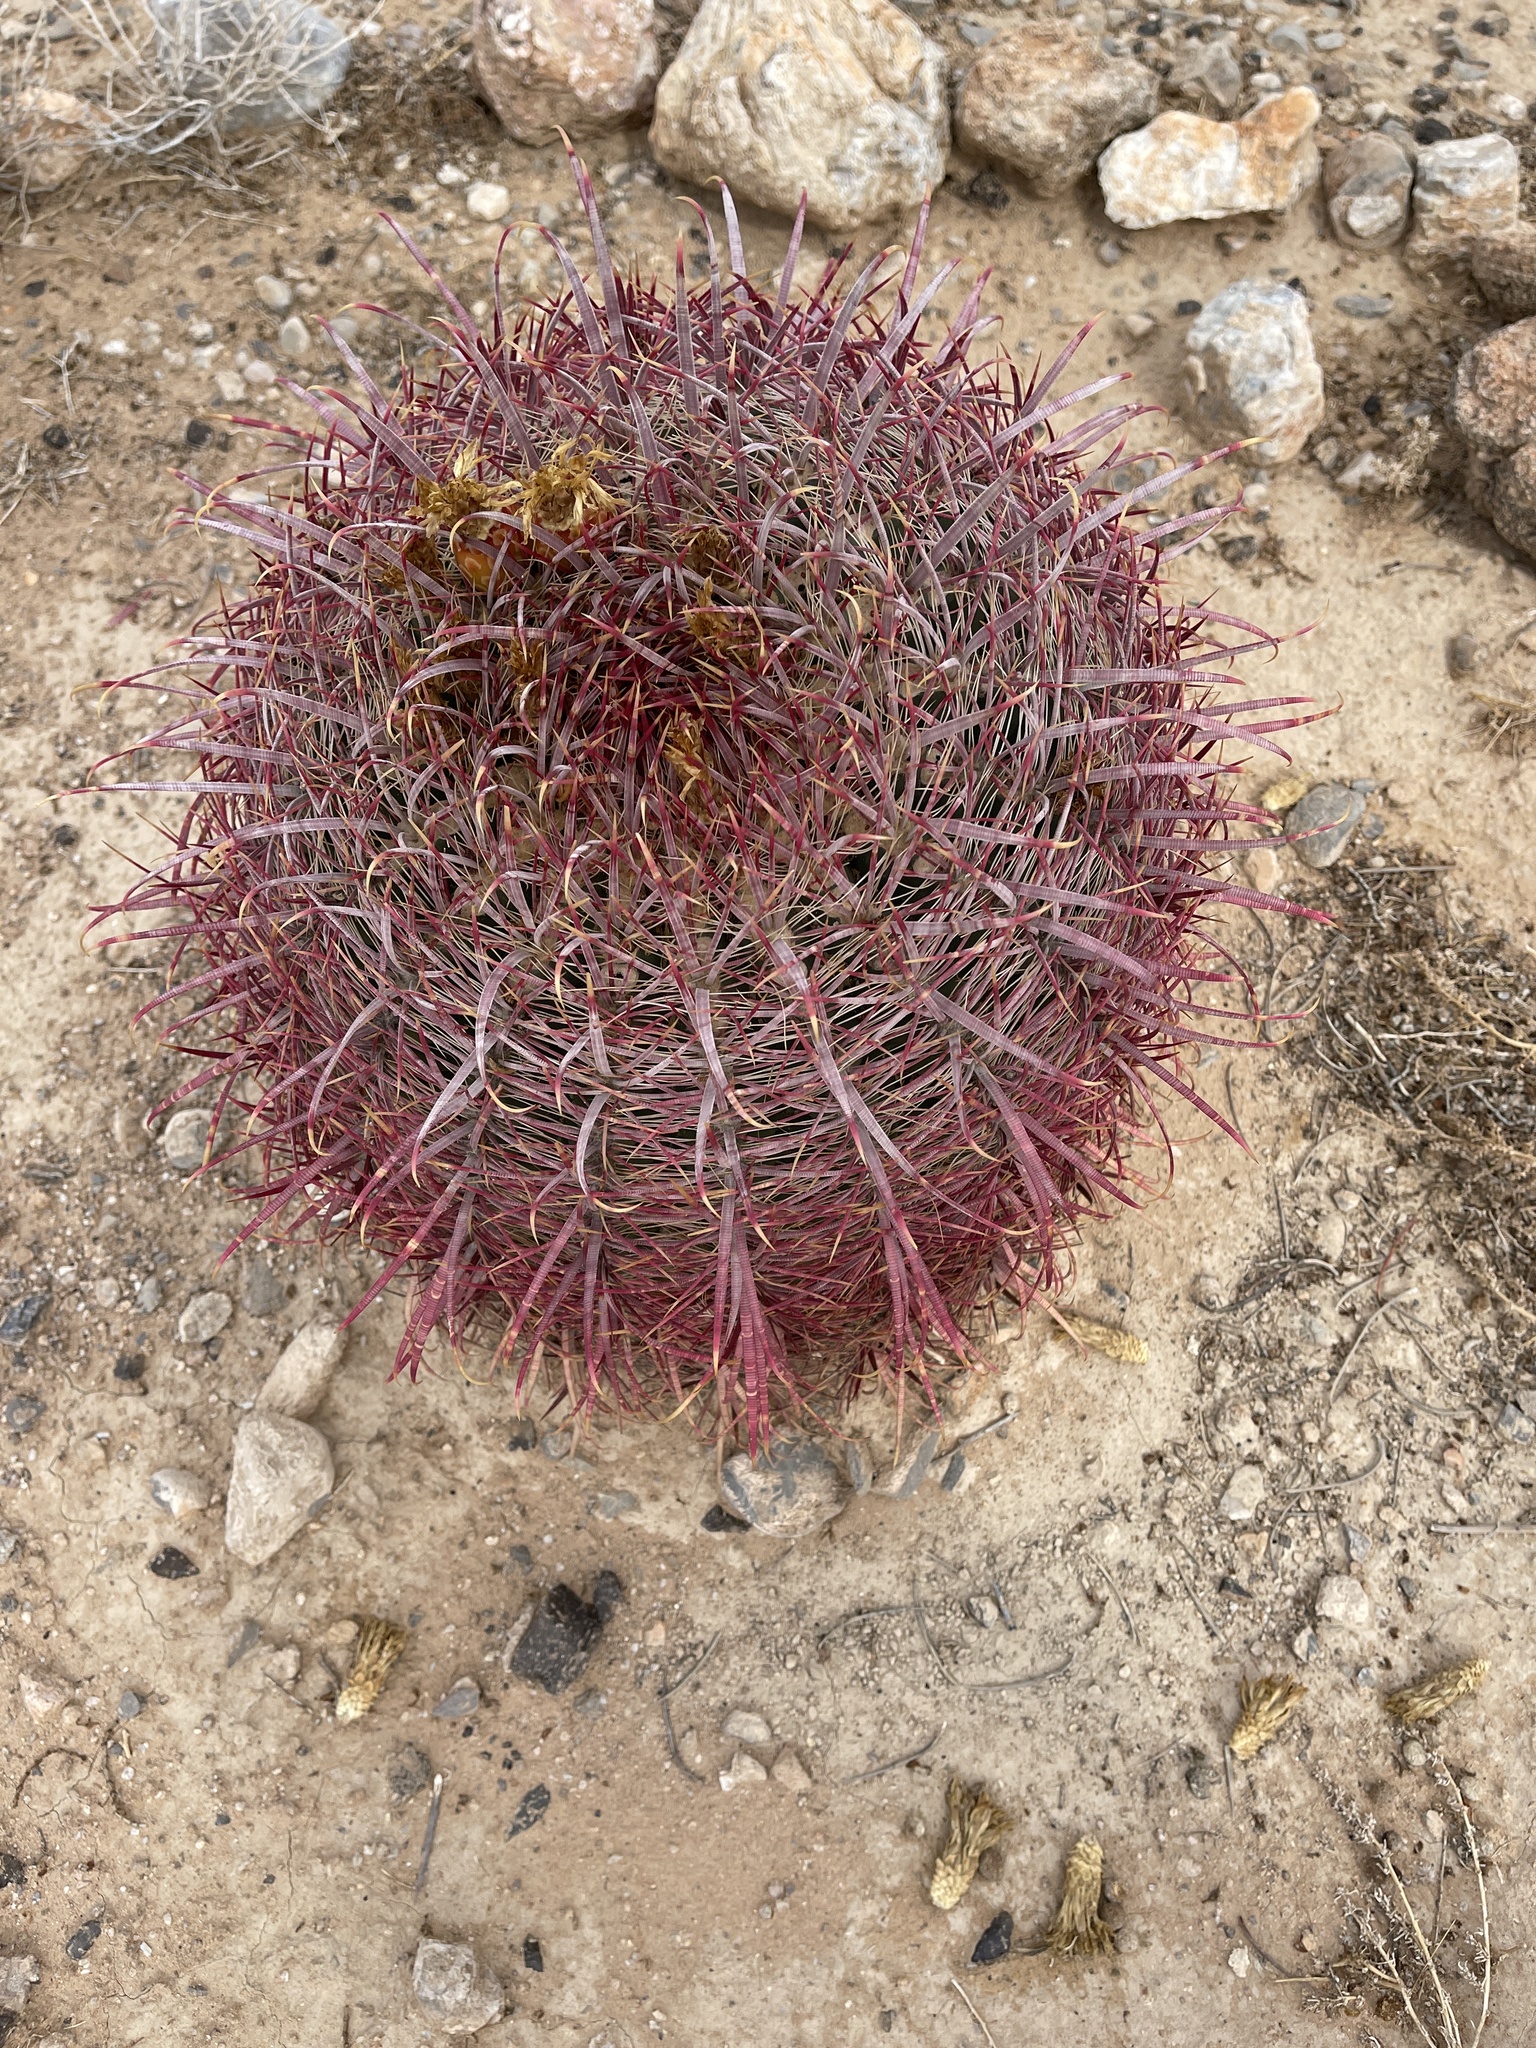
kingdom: Plantae
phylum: Tracheophyta
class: Magnoliopsida
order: Caryophyllales
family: Cactaceae
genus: Ferocactus
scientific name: Ferocactus cylindraceus
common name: California barrel cactus
